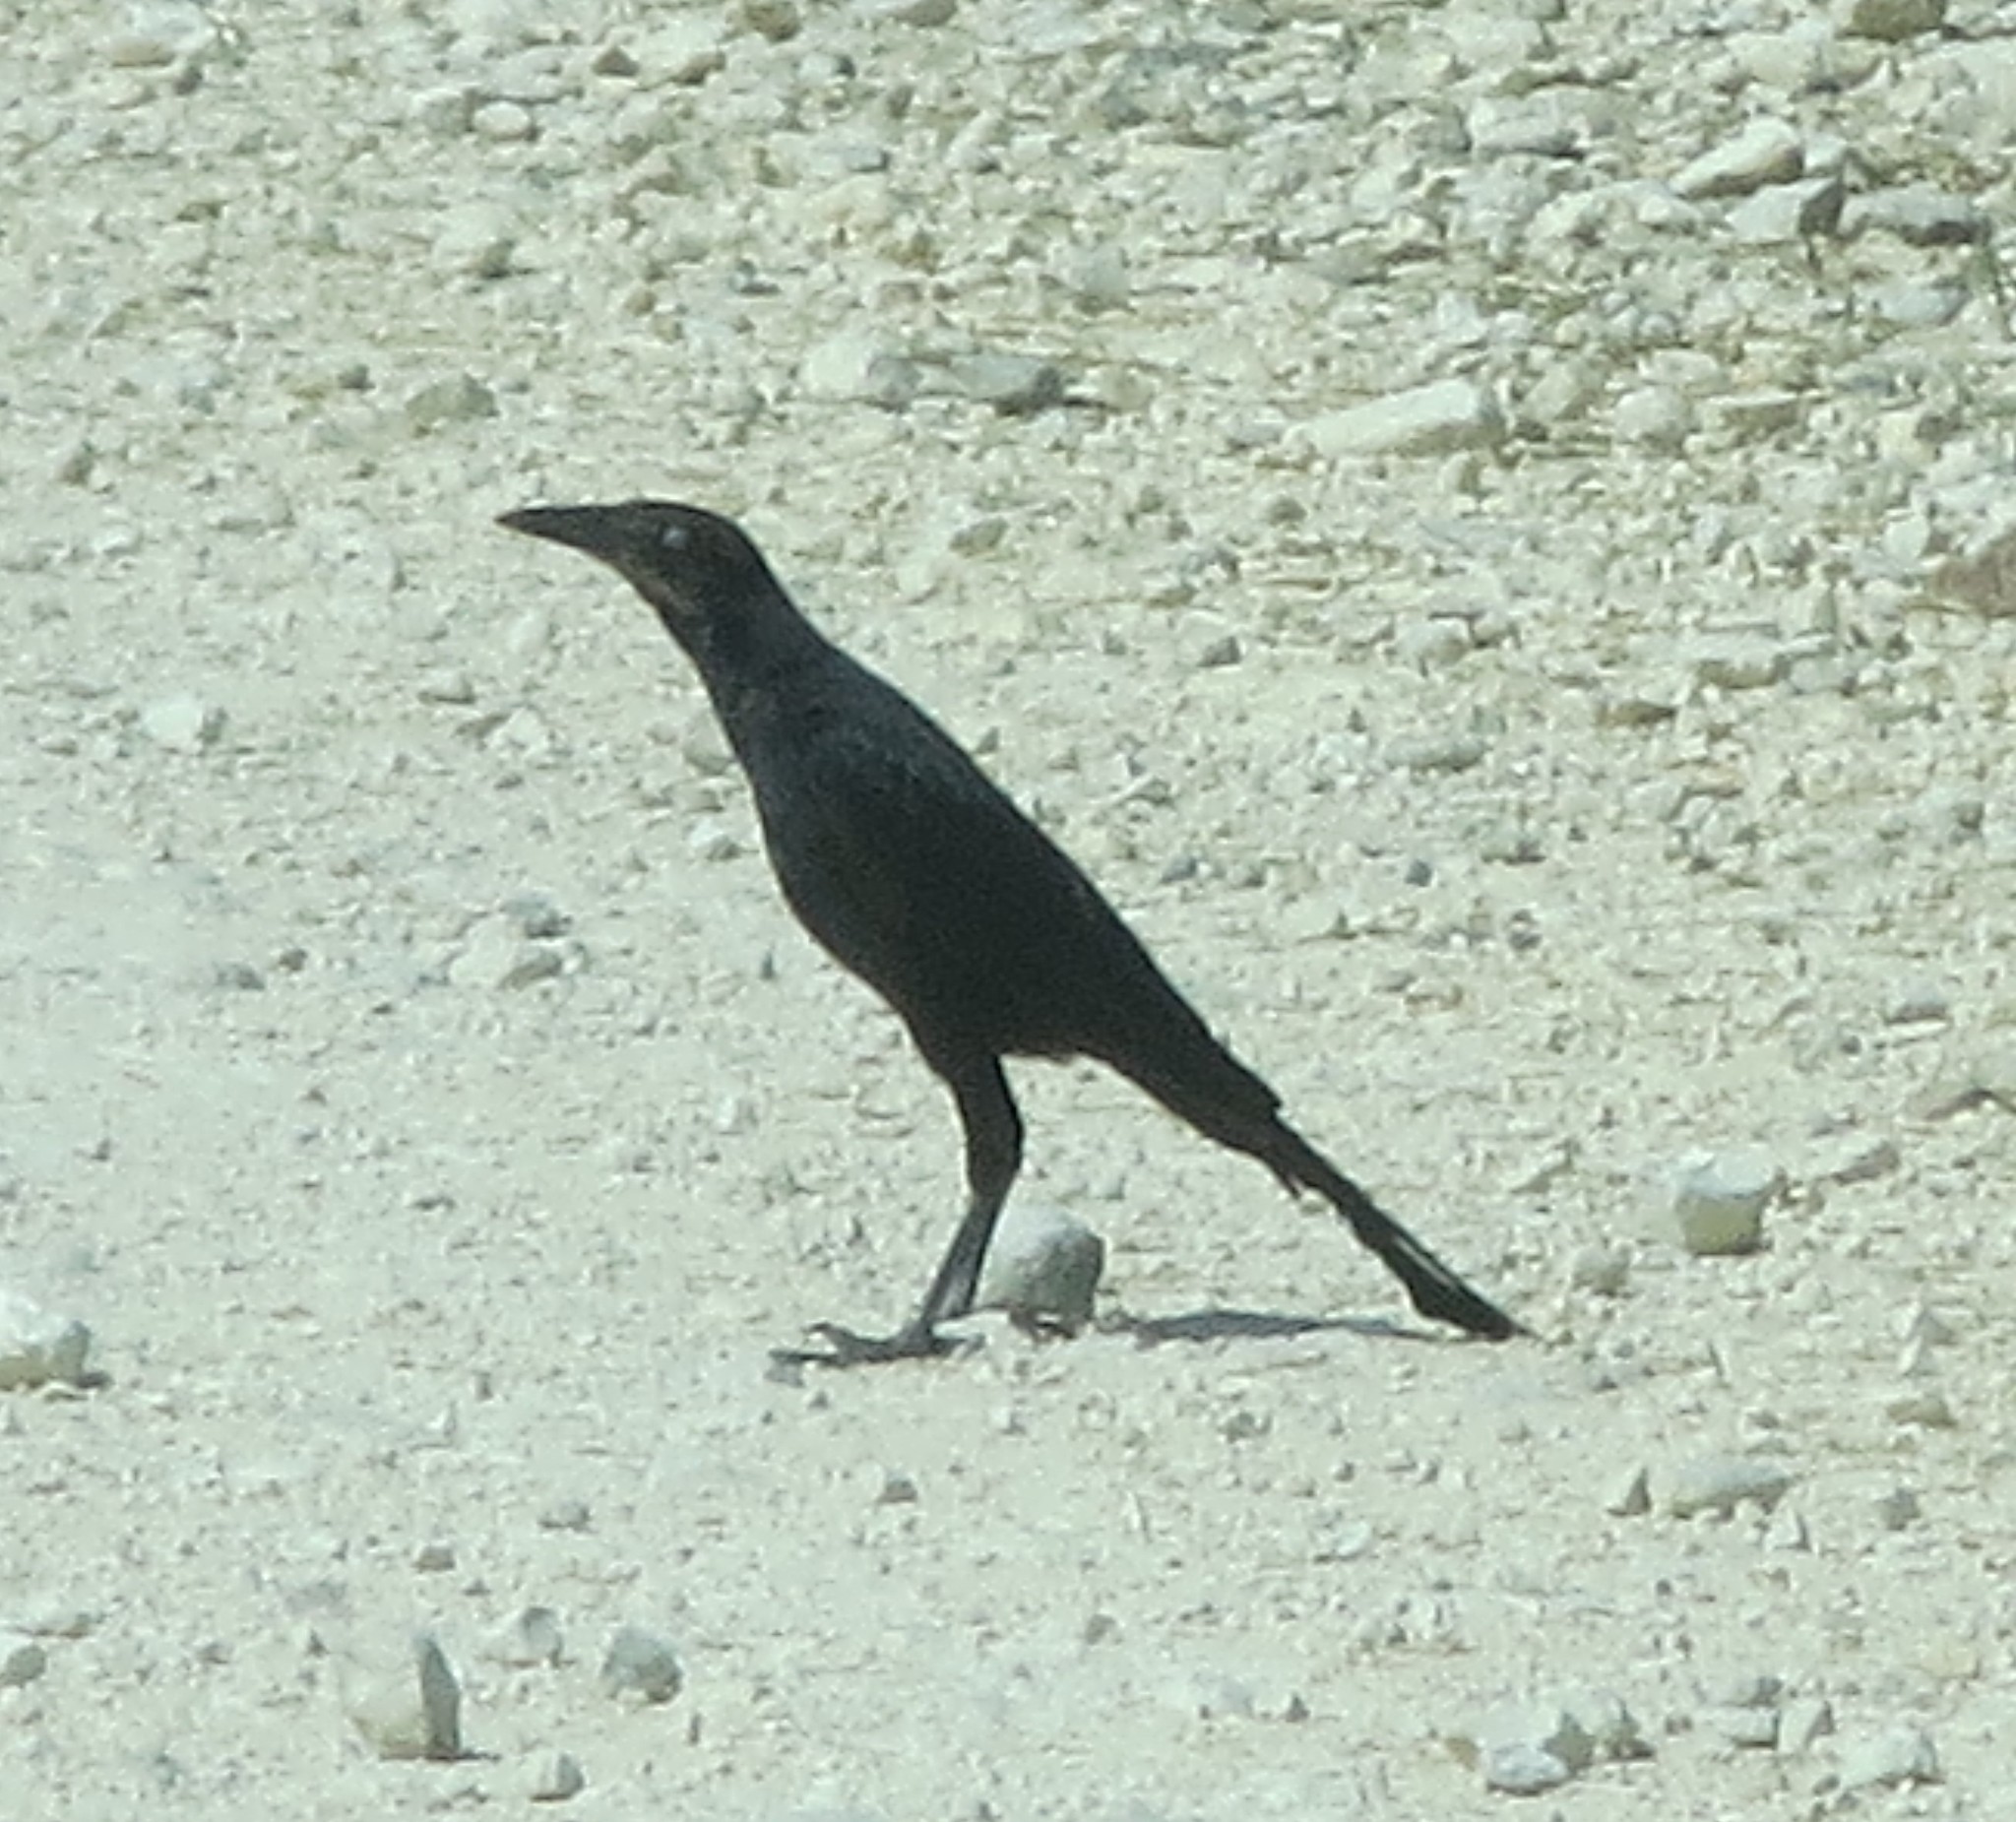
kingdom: Animalia
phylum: Chordata
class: Aves
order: Passeriformes
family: Icteridae
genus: Quiscalus
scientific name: Quiscalus mexicanus
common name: Great-tailed grackle
